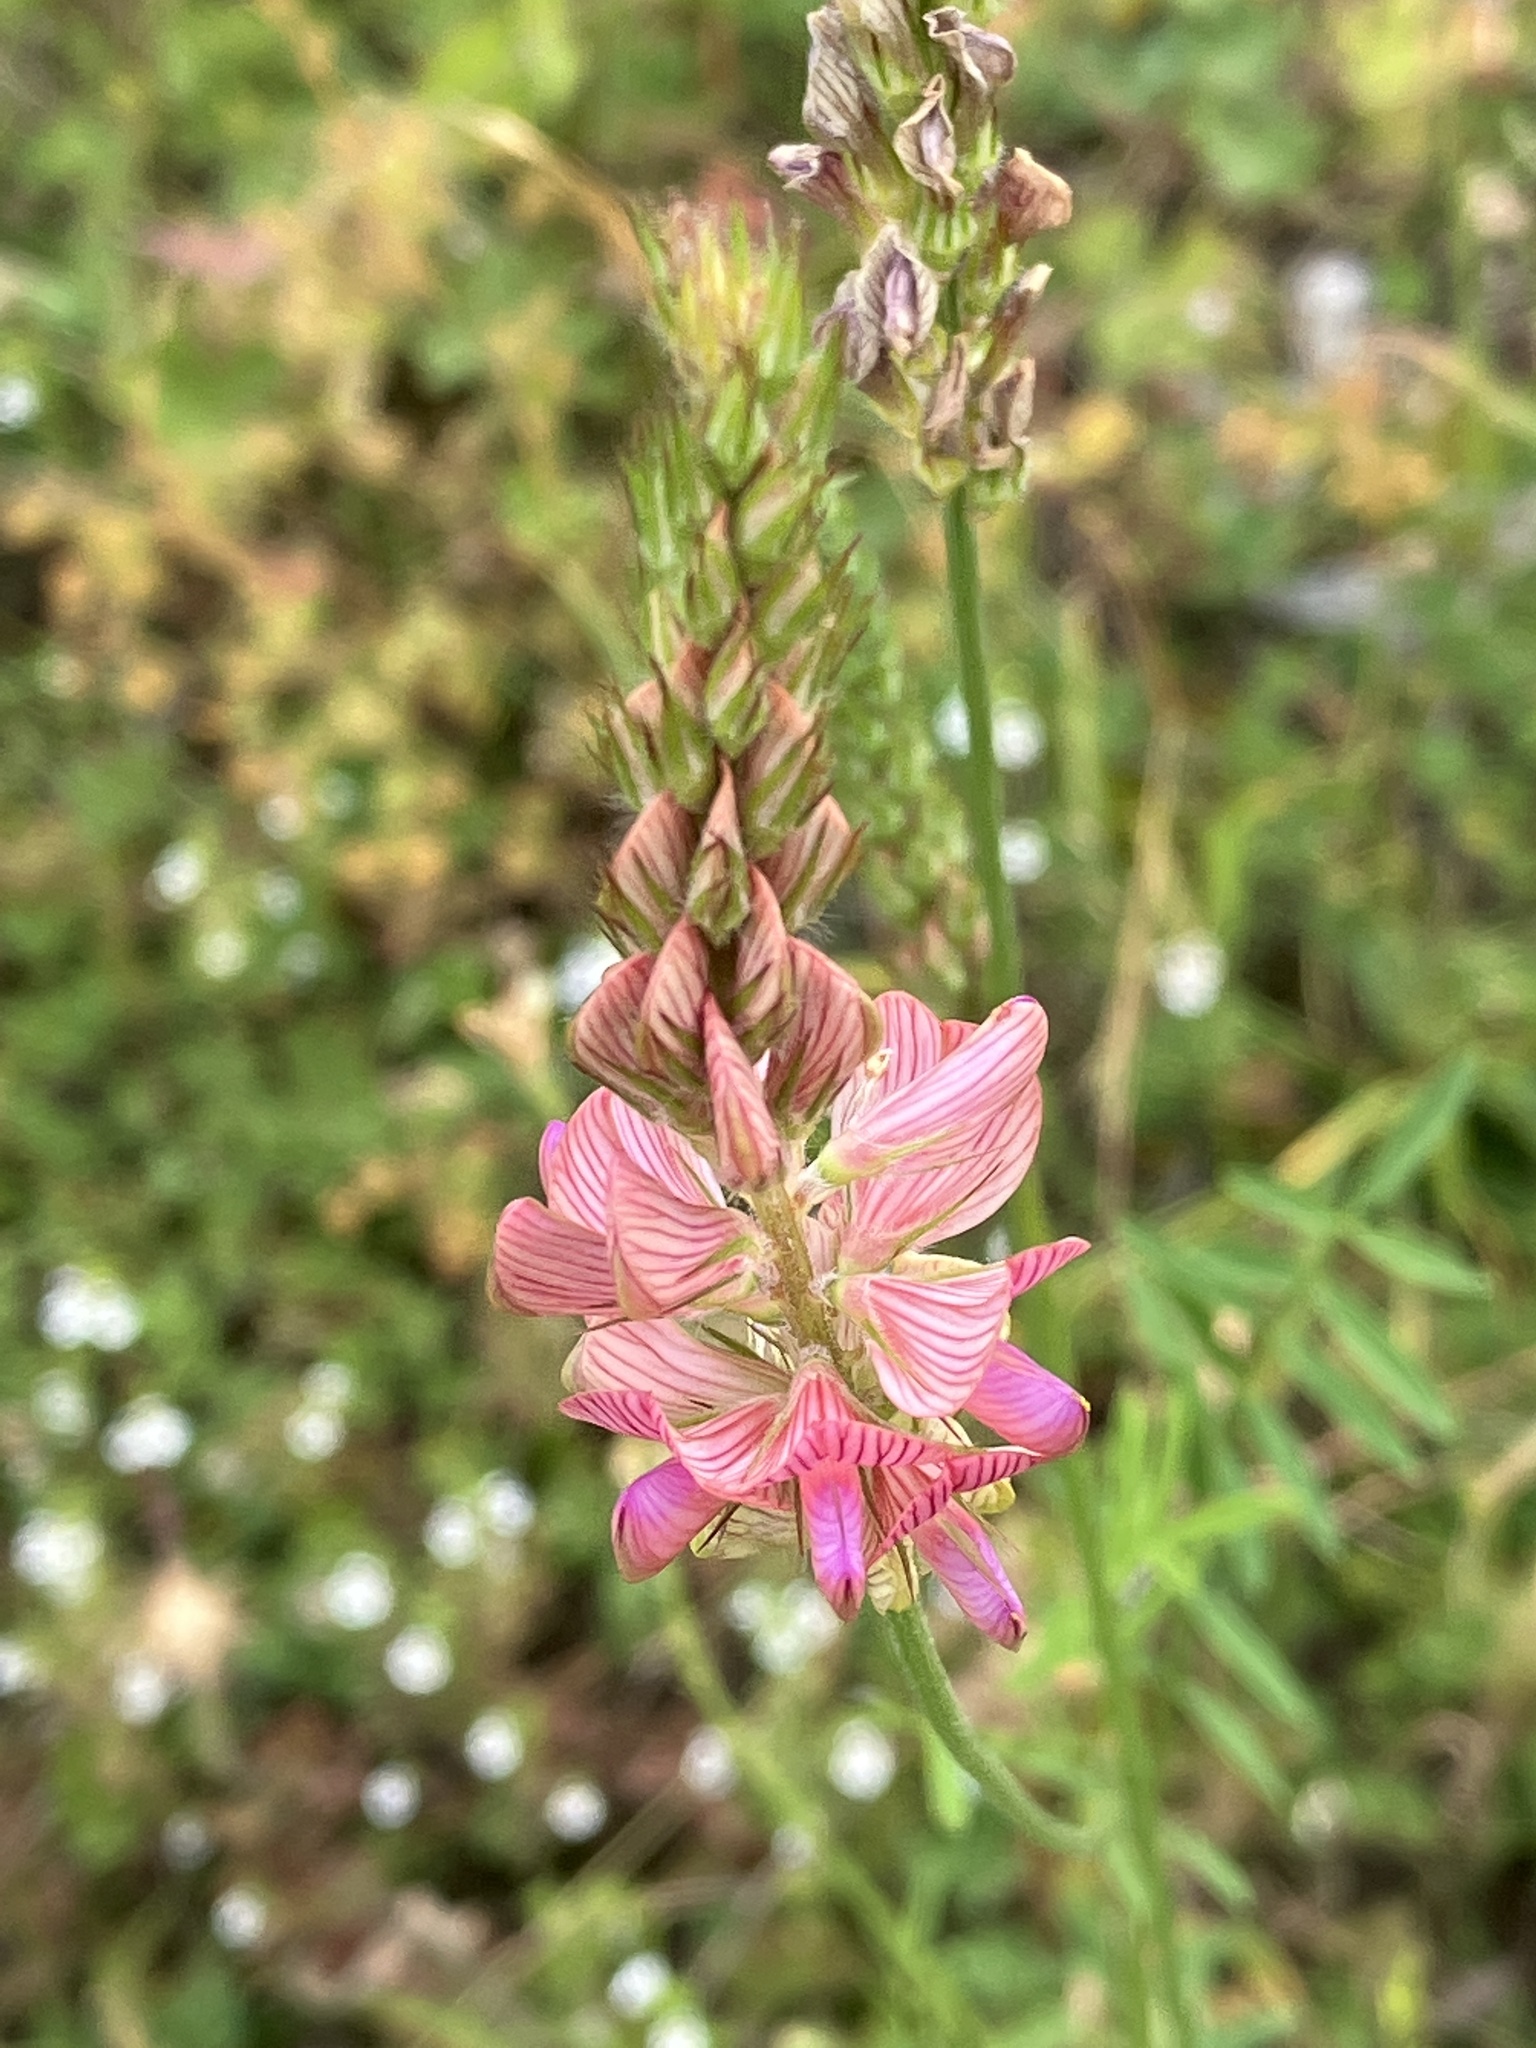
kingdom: Plantae
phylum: Tracheophyta
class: Magnoliopsida
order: Fabales
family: Fabaceae
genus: Onobrychis
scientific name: Onobrychis viciifolia
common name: Sainfoin
